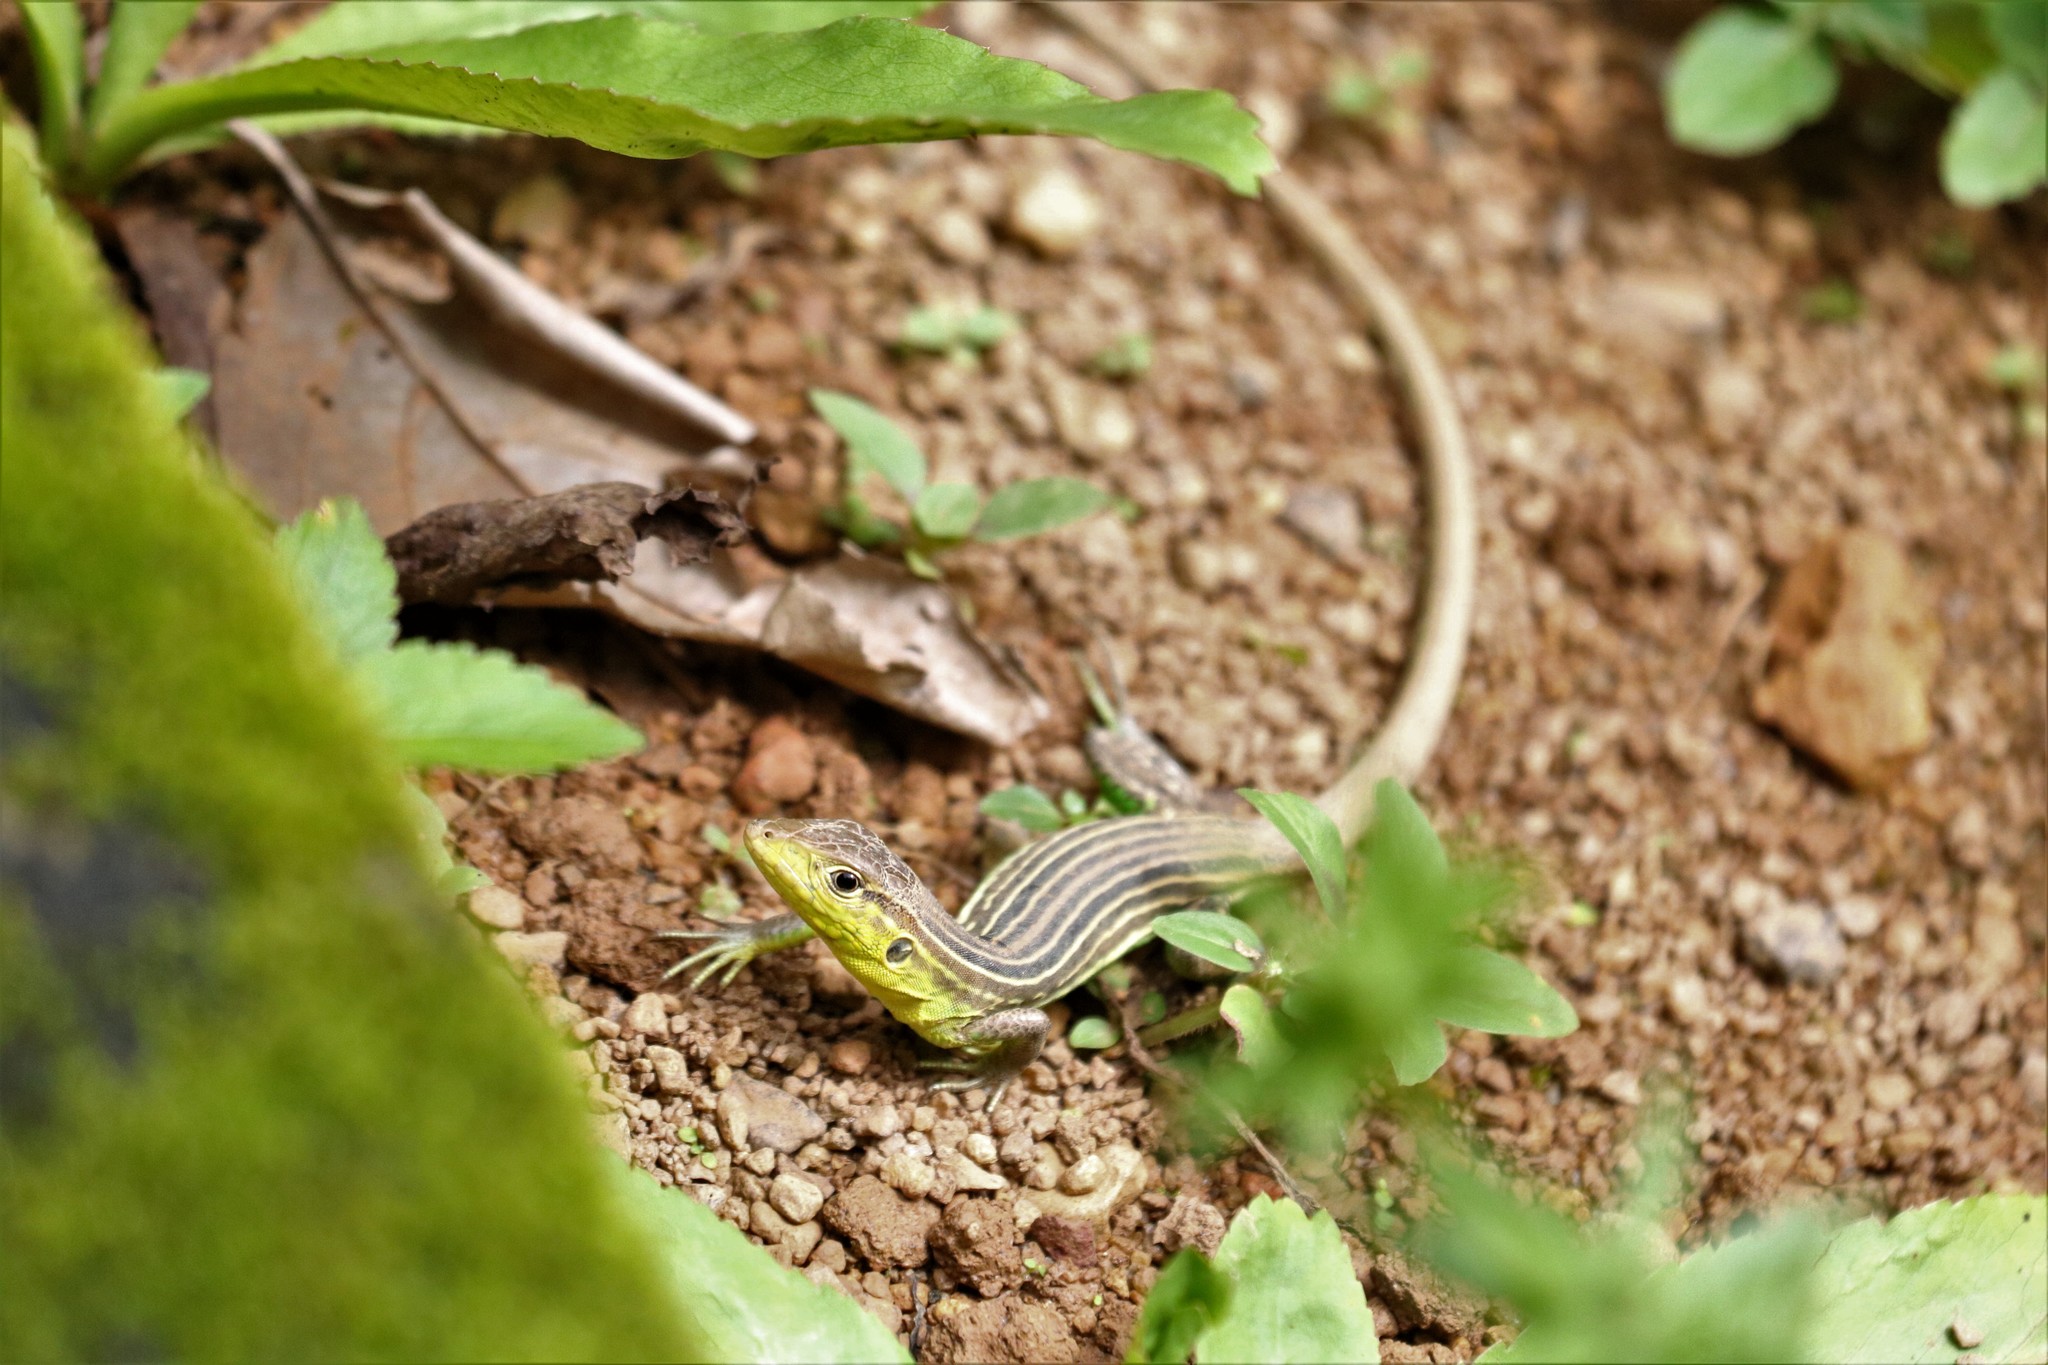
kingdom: Animalia
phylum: Chordata
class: Squamata
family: Teiidae
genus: Cnemidophorus
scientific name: Cnemidophorus lemniscatus
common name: Rainbow whiptail
